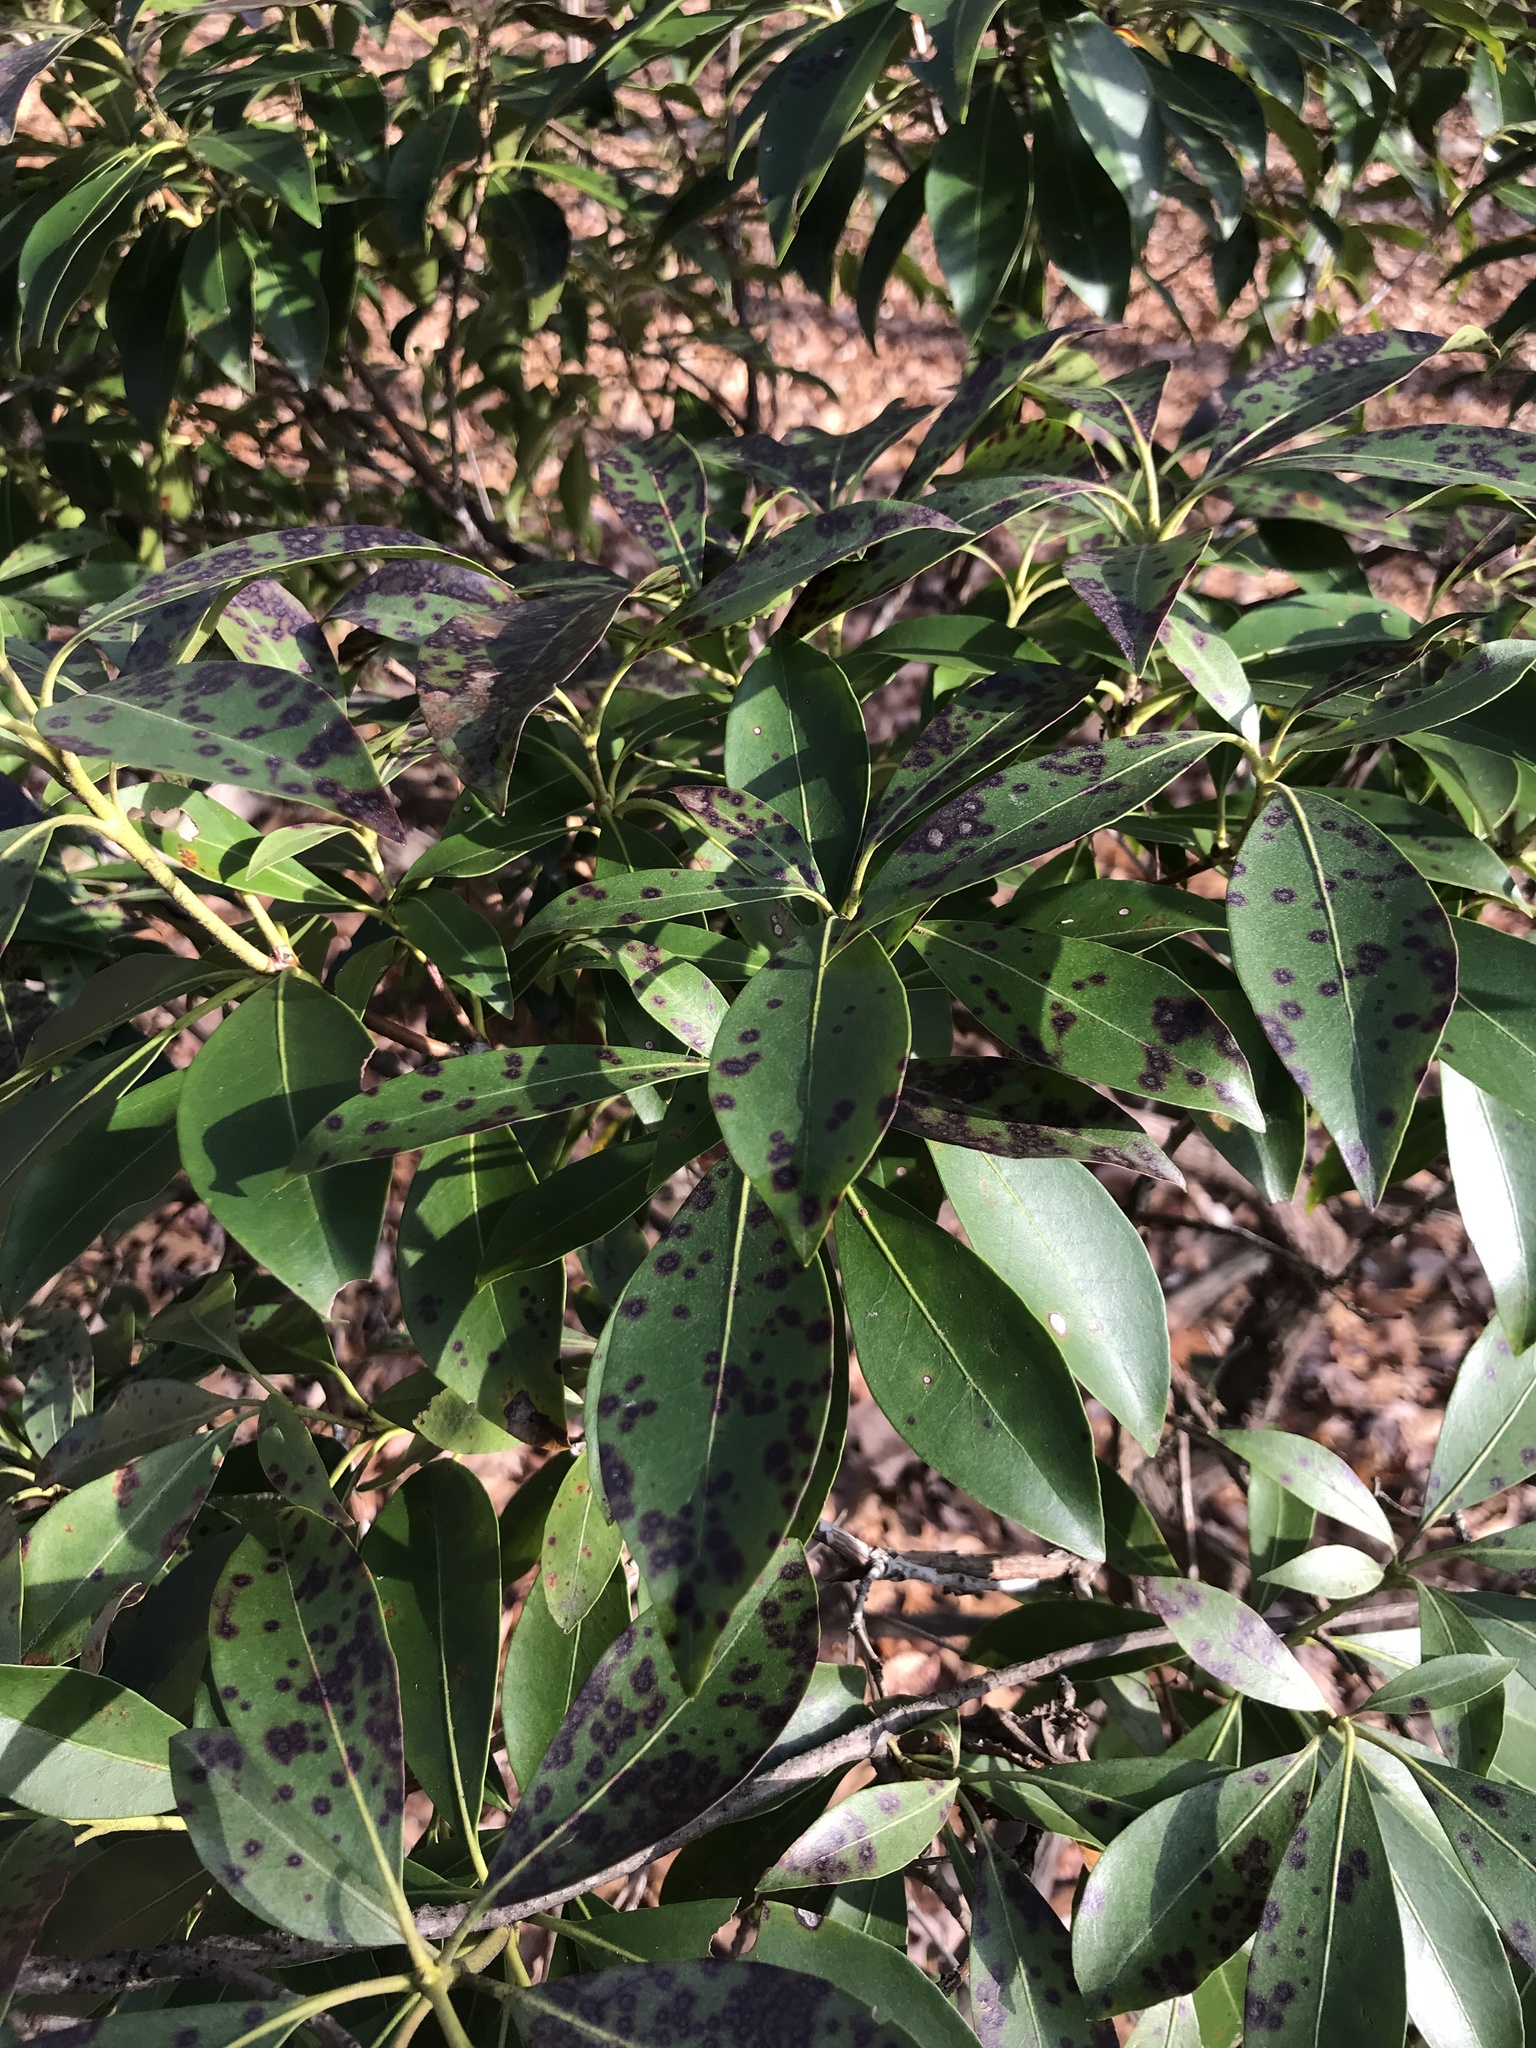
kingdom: Plantae
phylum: Tracheophyta
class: Magnoliopsida
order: Ericales
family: Ericaceae
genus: Kalmia
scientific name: Kalmia latifolia
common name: Mountain-laurel
